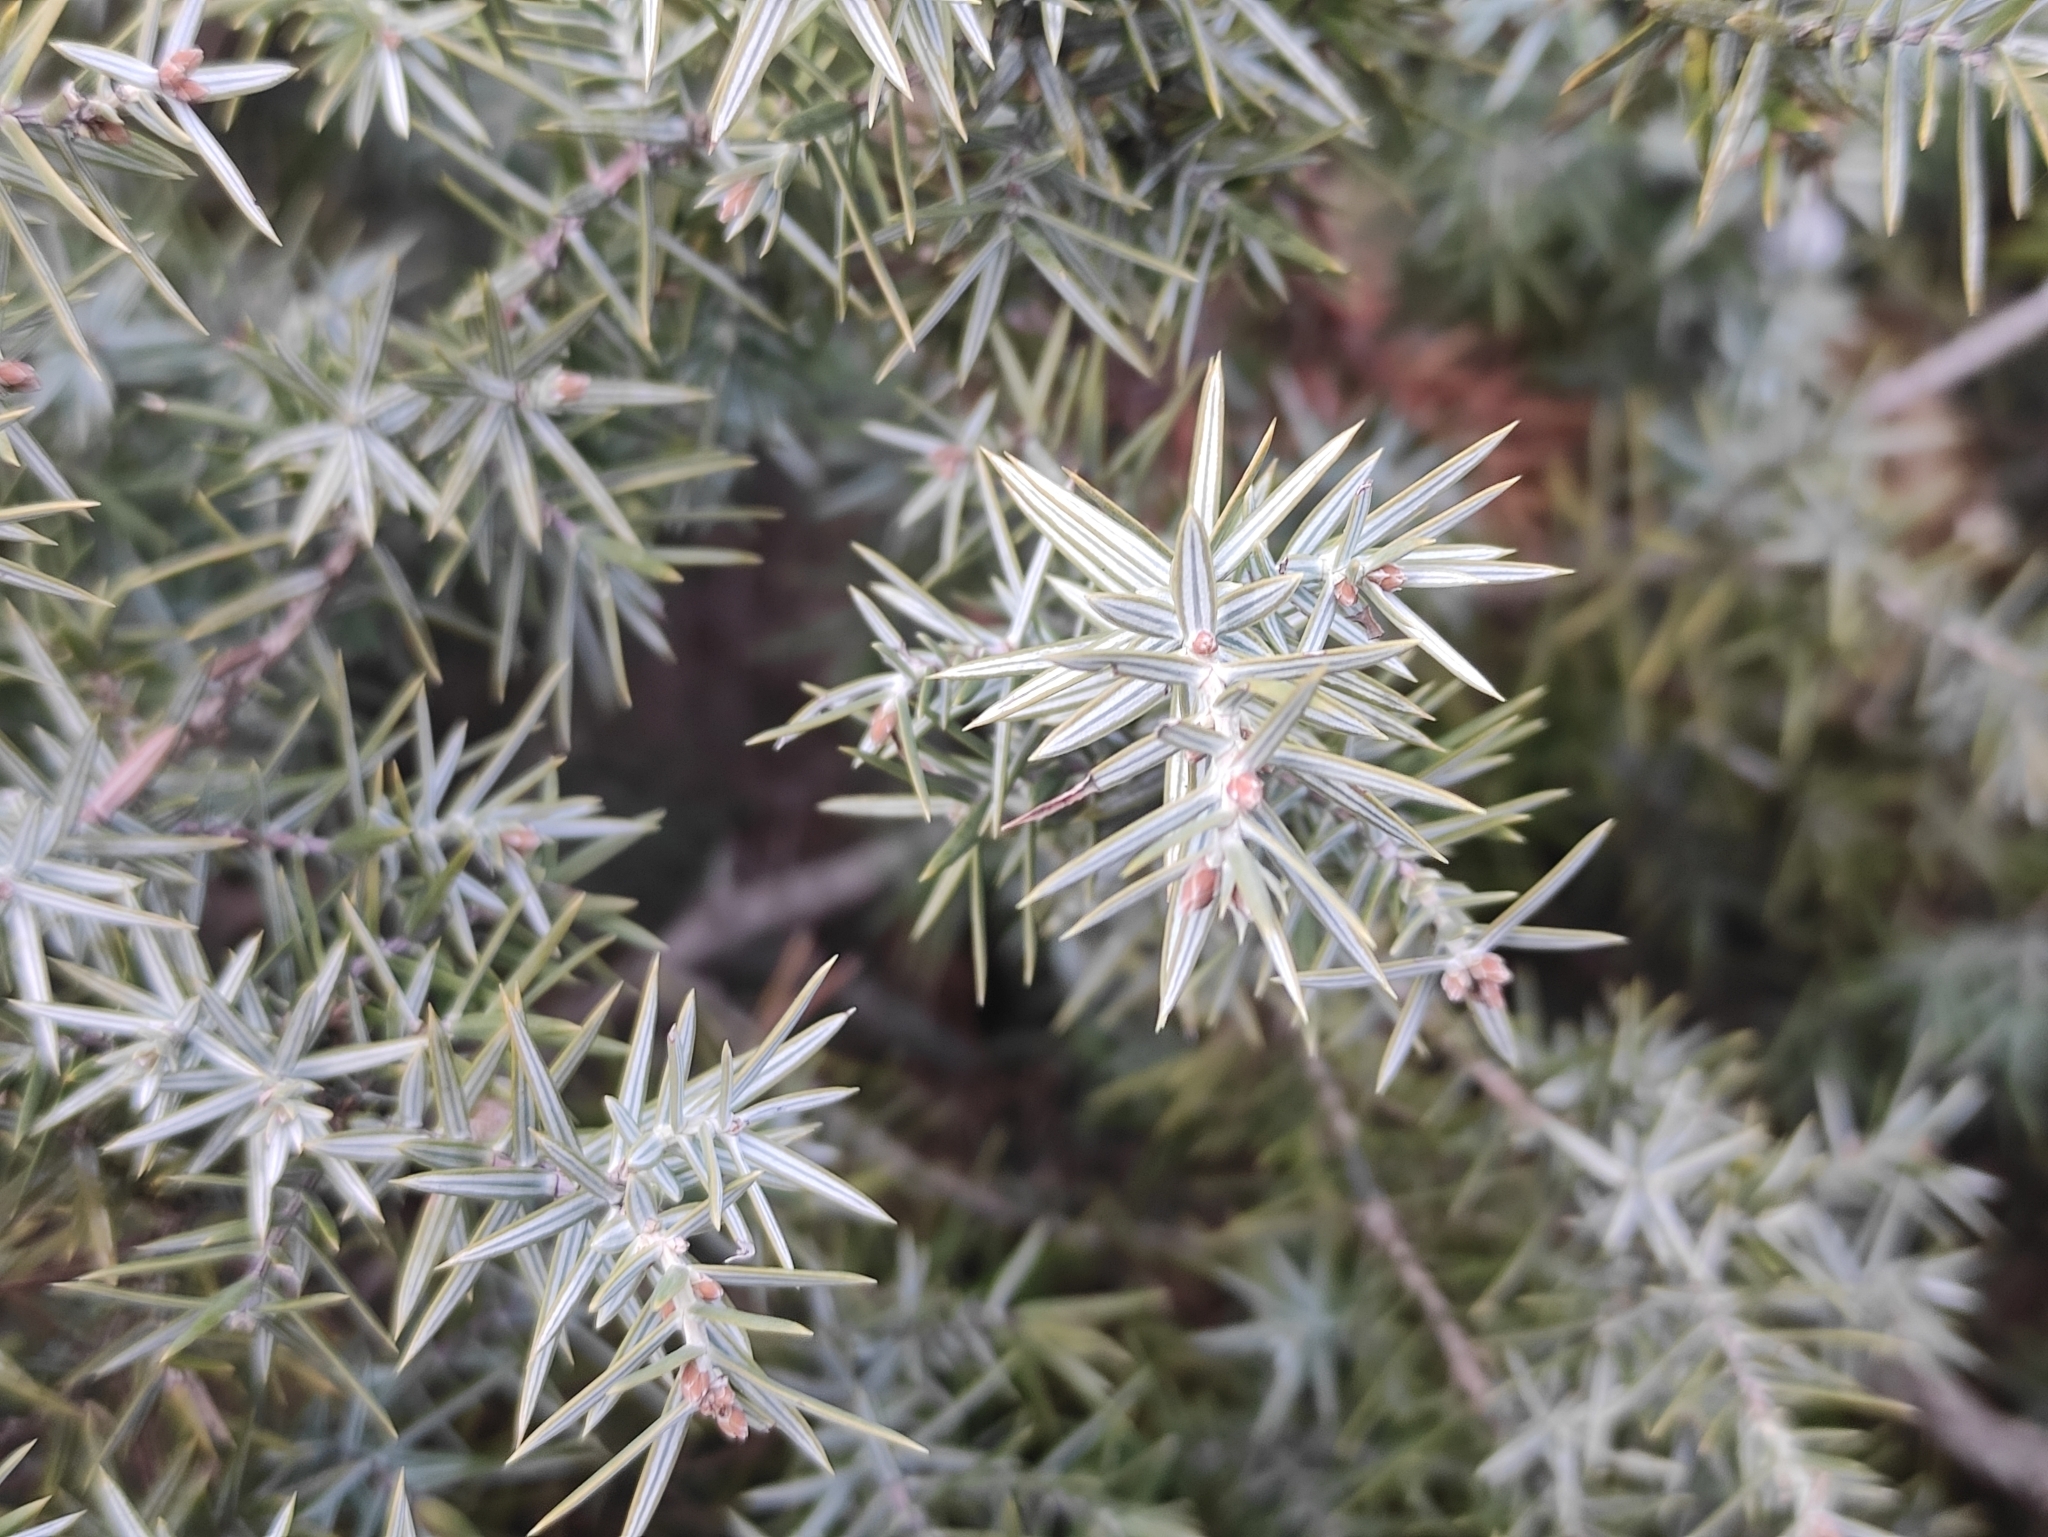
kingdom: Plantae
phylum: Tracheophyta
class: Pinopsida
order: Pinales
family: Cupressaceae
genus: Juniperus
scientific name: Juniperus oxycedrus
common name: Prickly juniper
